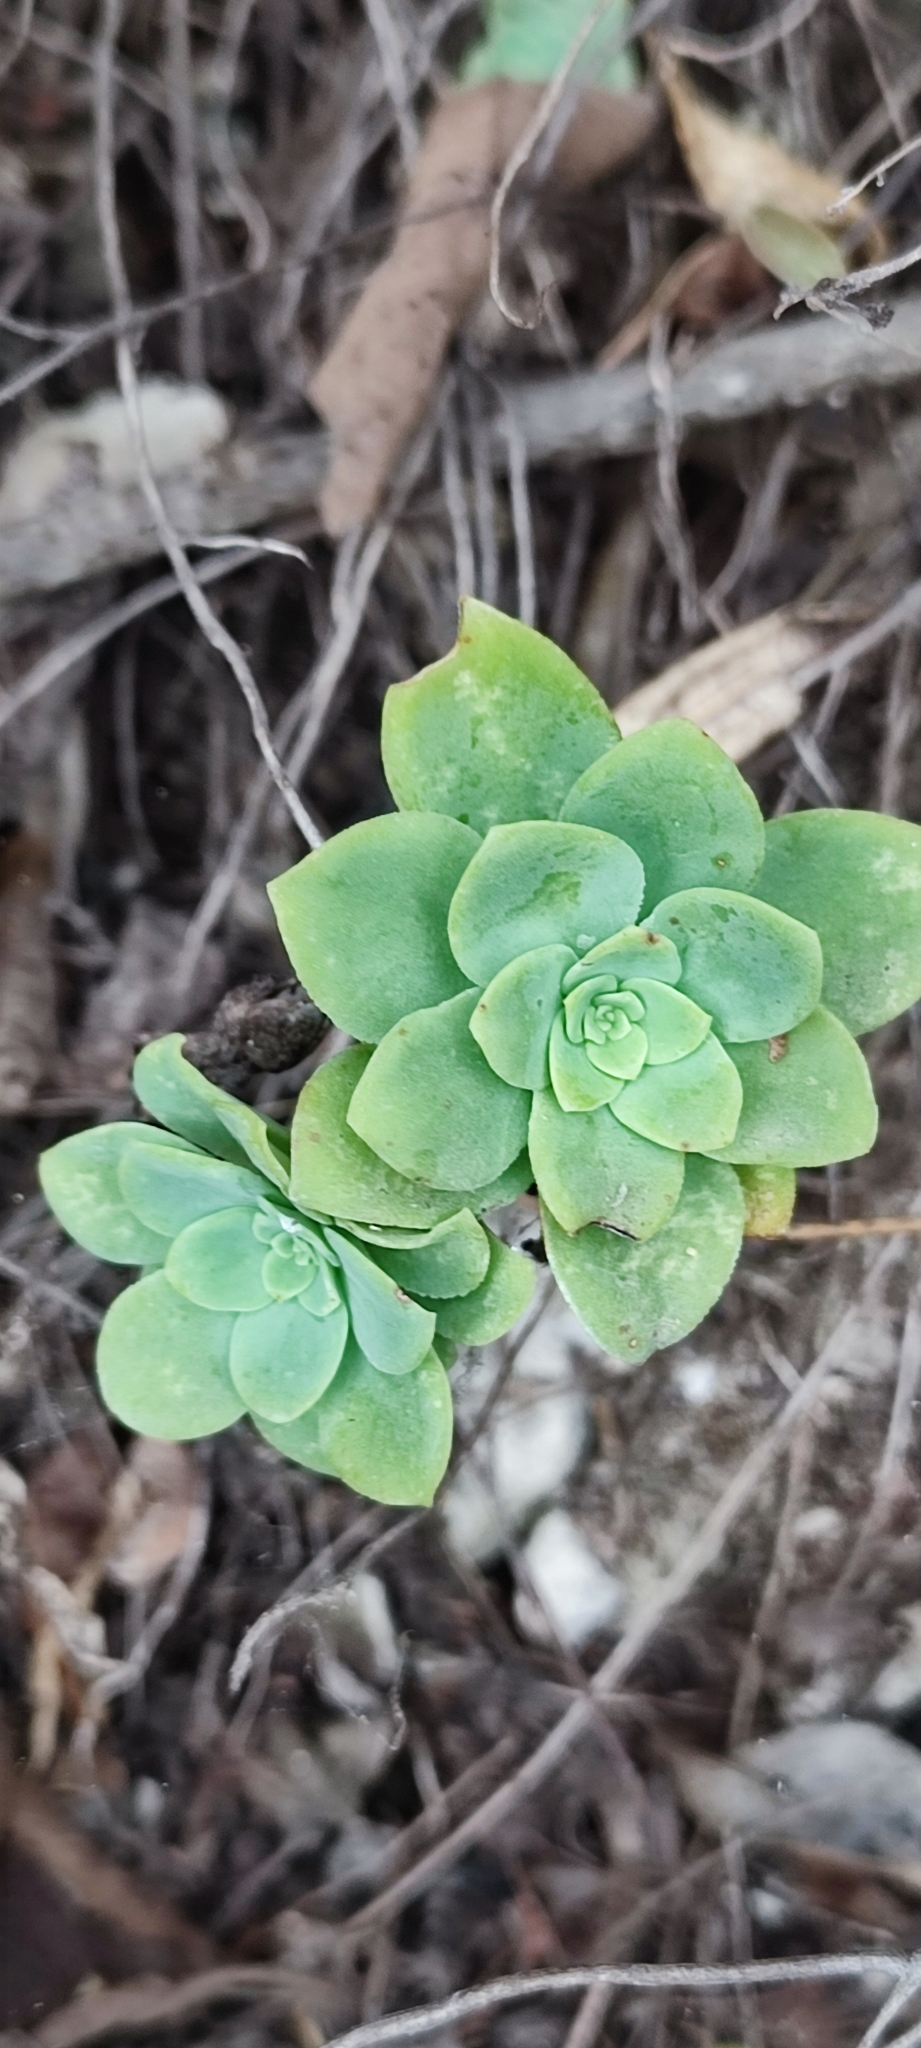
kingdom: Plantae
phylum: Tracheophyta
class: Magnoliopsida
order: Saxifragales
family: Crassulaceae
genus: Sedum
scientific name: Sedum palmeri
